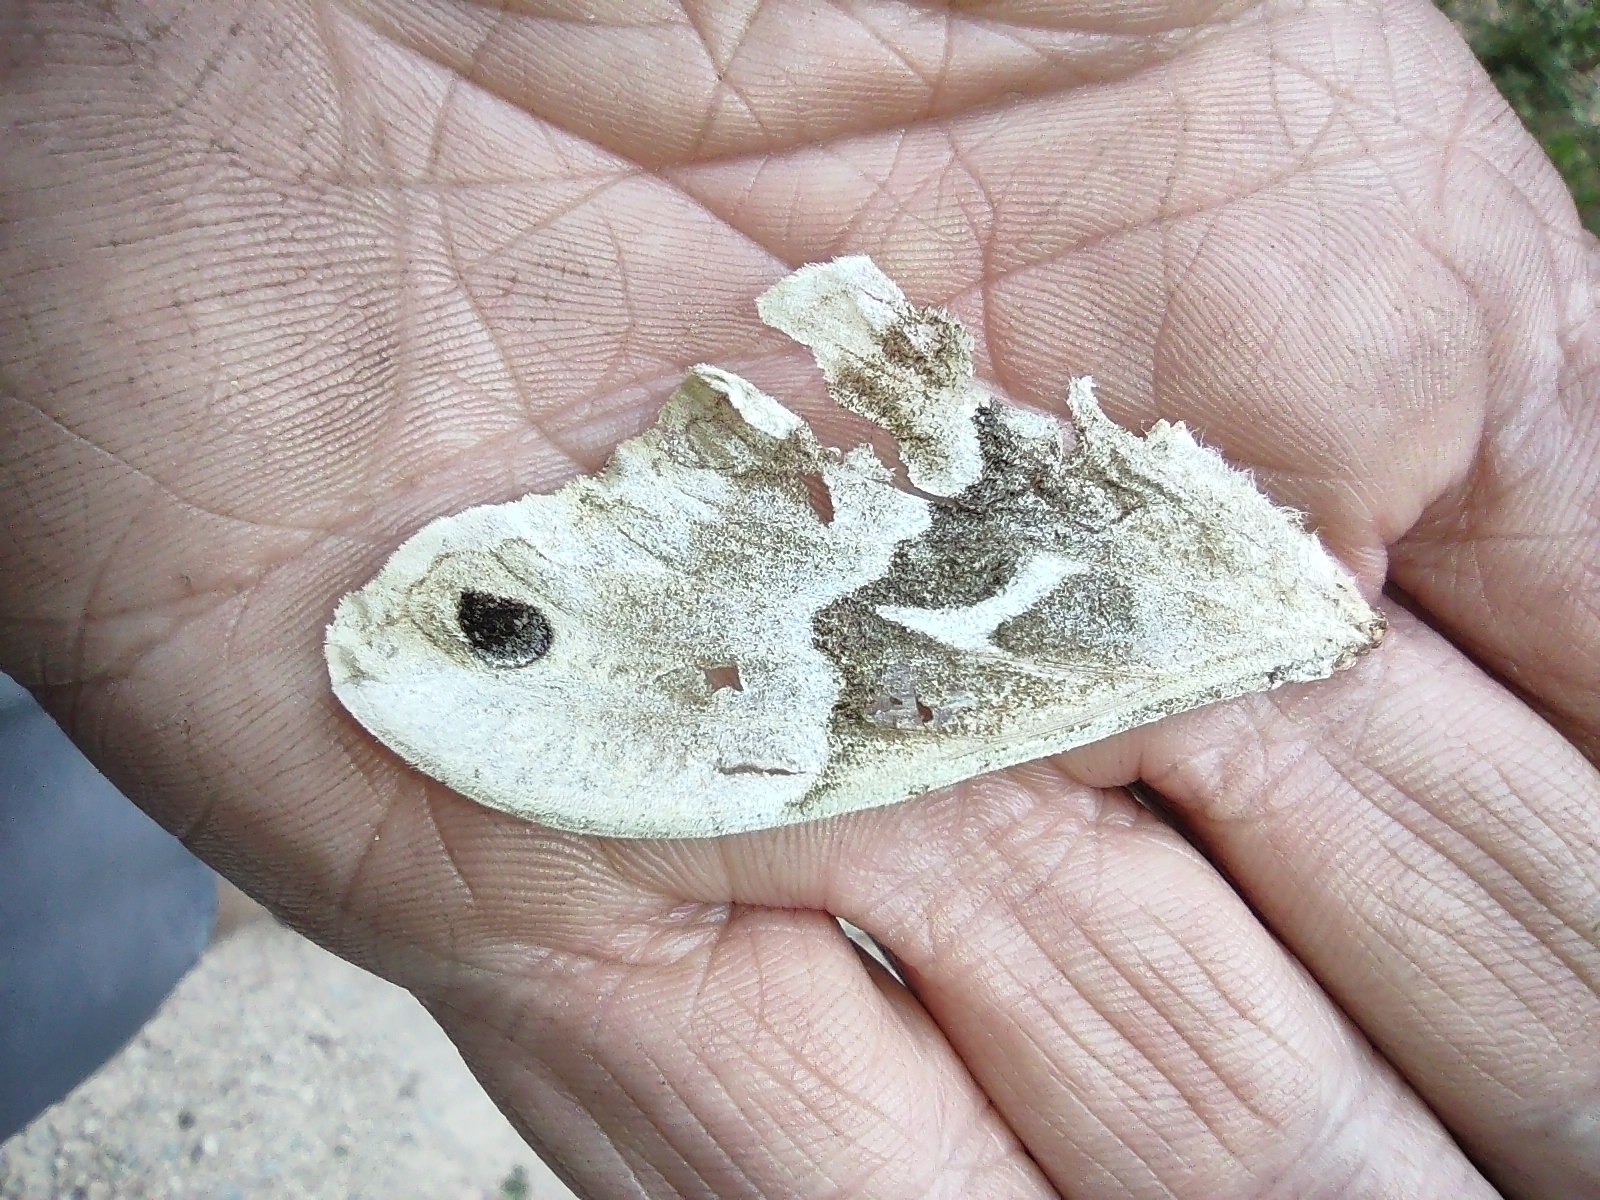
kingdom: Animalia
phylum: Arthropoda
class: Insecta
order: Lepidoptera
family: Saturniidae
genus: Callosamia
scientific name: Callosamia angulifera
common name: Tulip tree silkmoth
